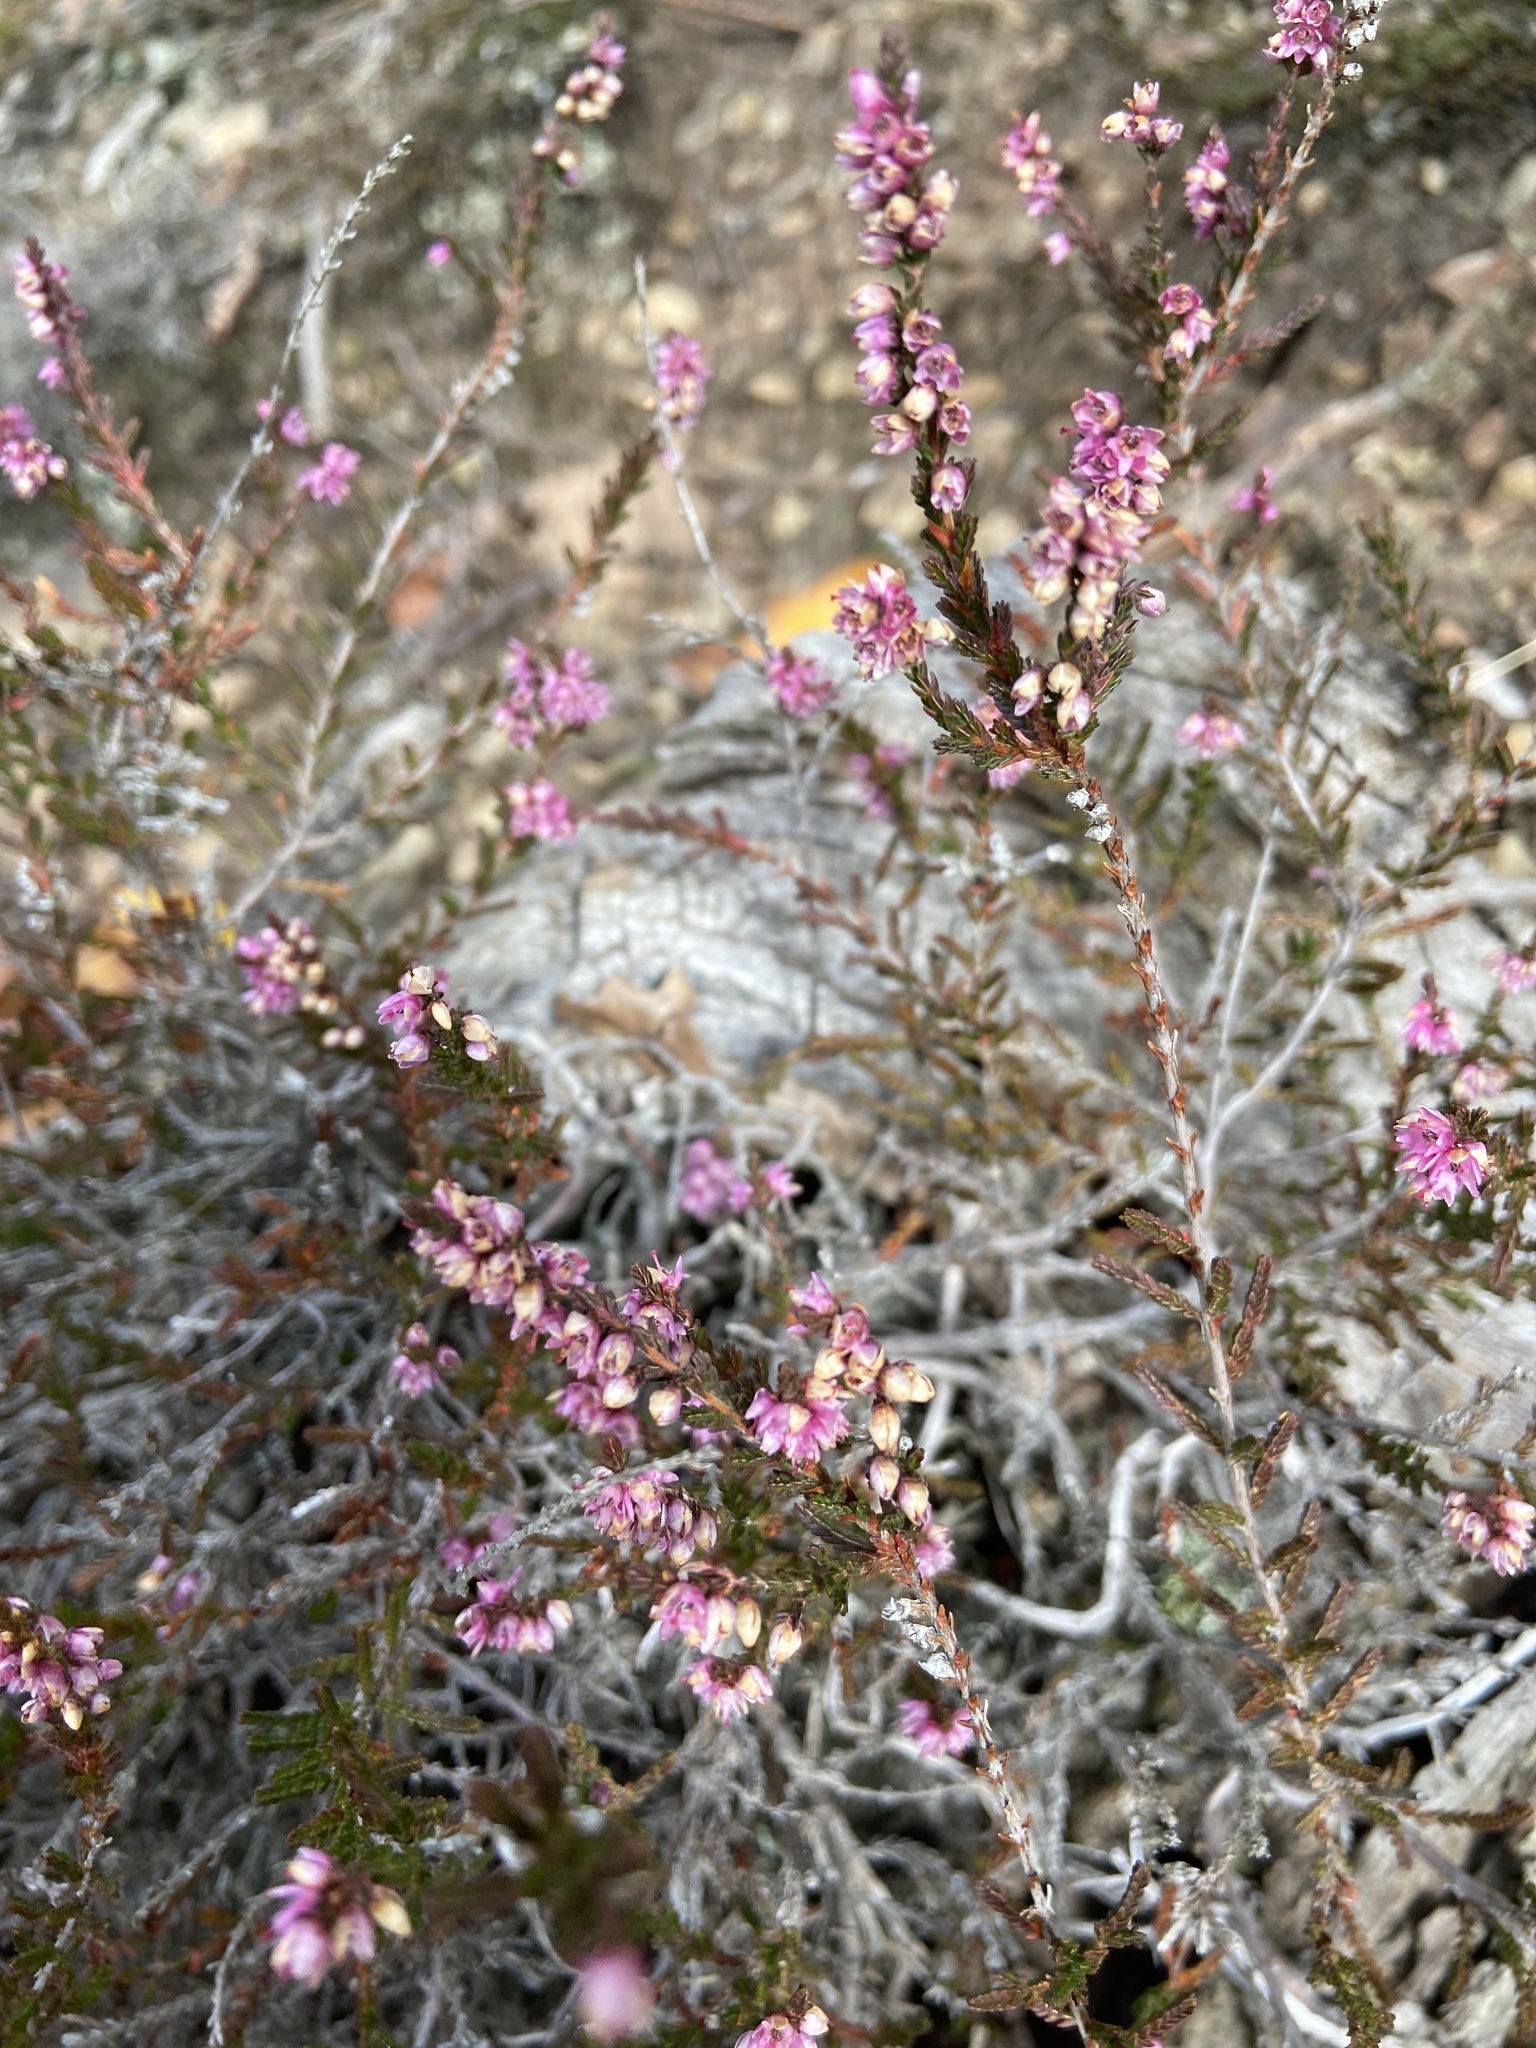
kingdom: Plantae
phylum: Tracheophyta
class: Magnoliopsida
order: Ericales
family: Ericaceae
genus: Calluna
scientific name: Calluna vulgaris
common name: Heather
